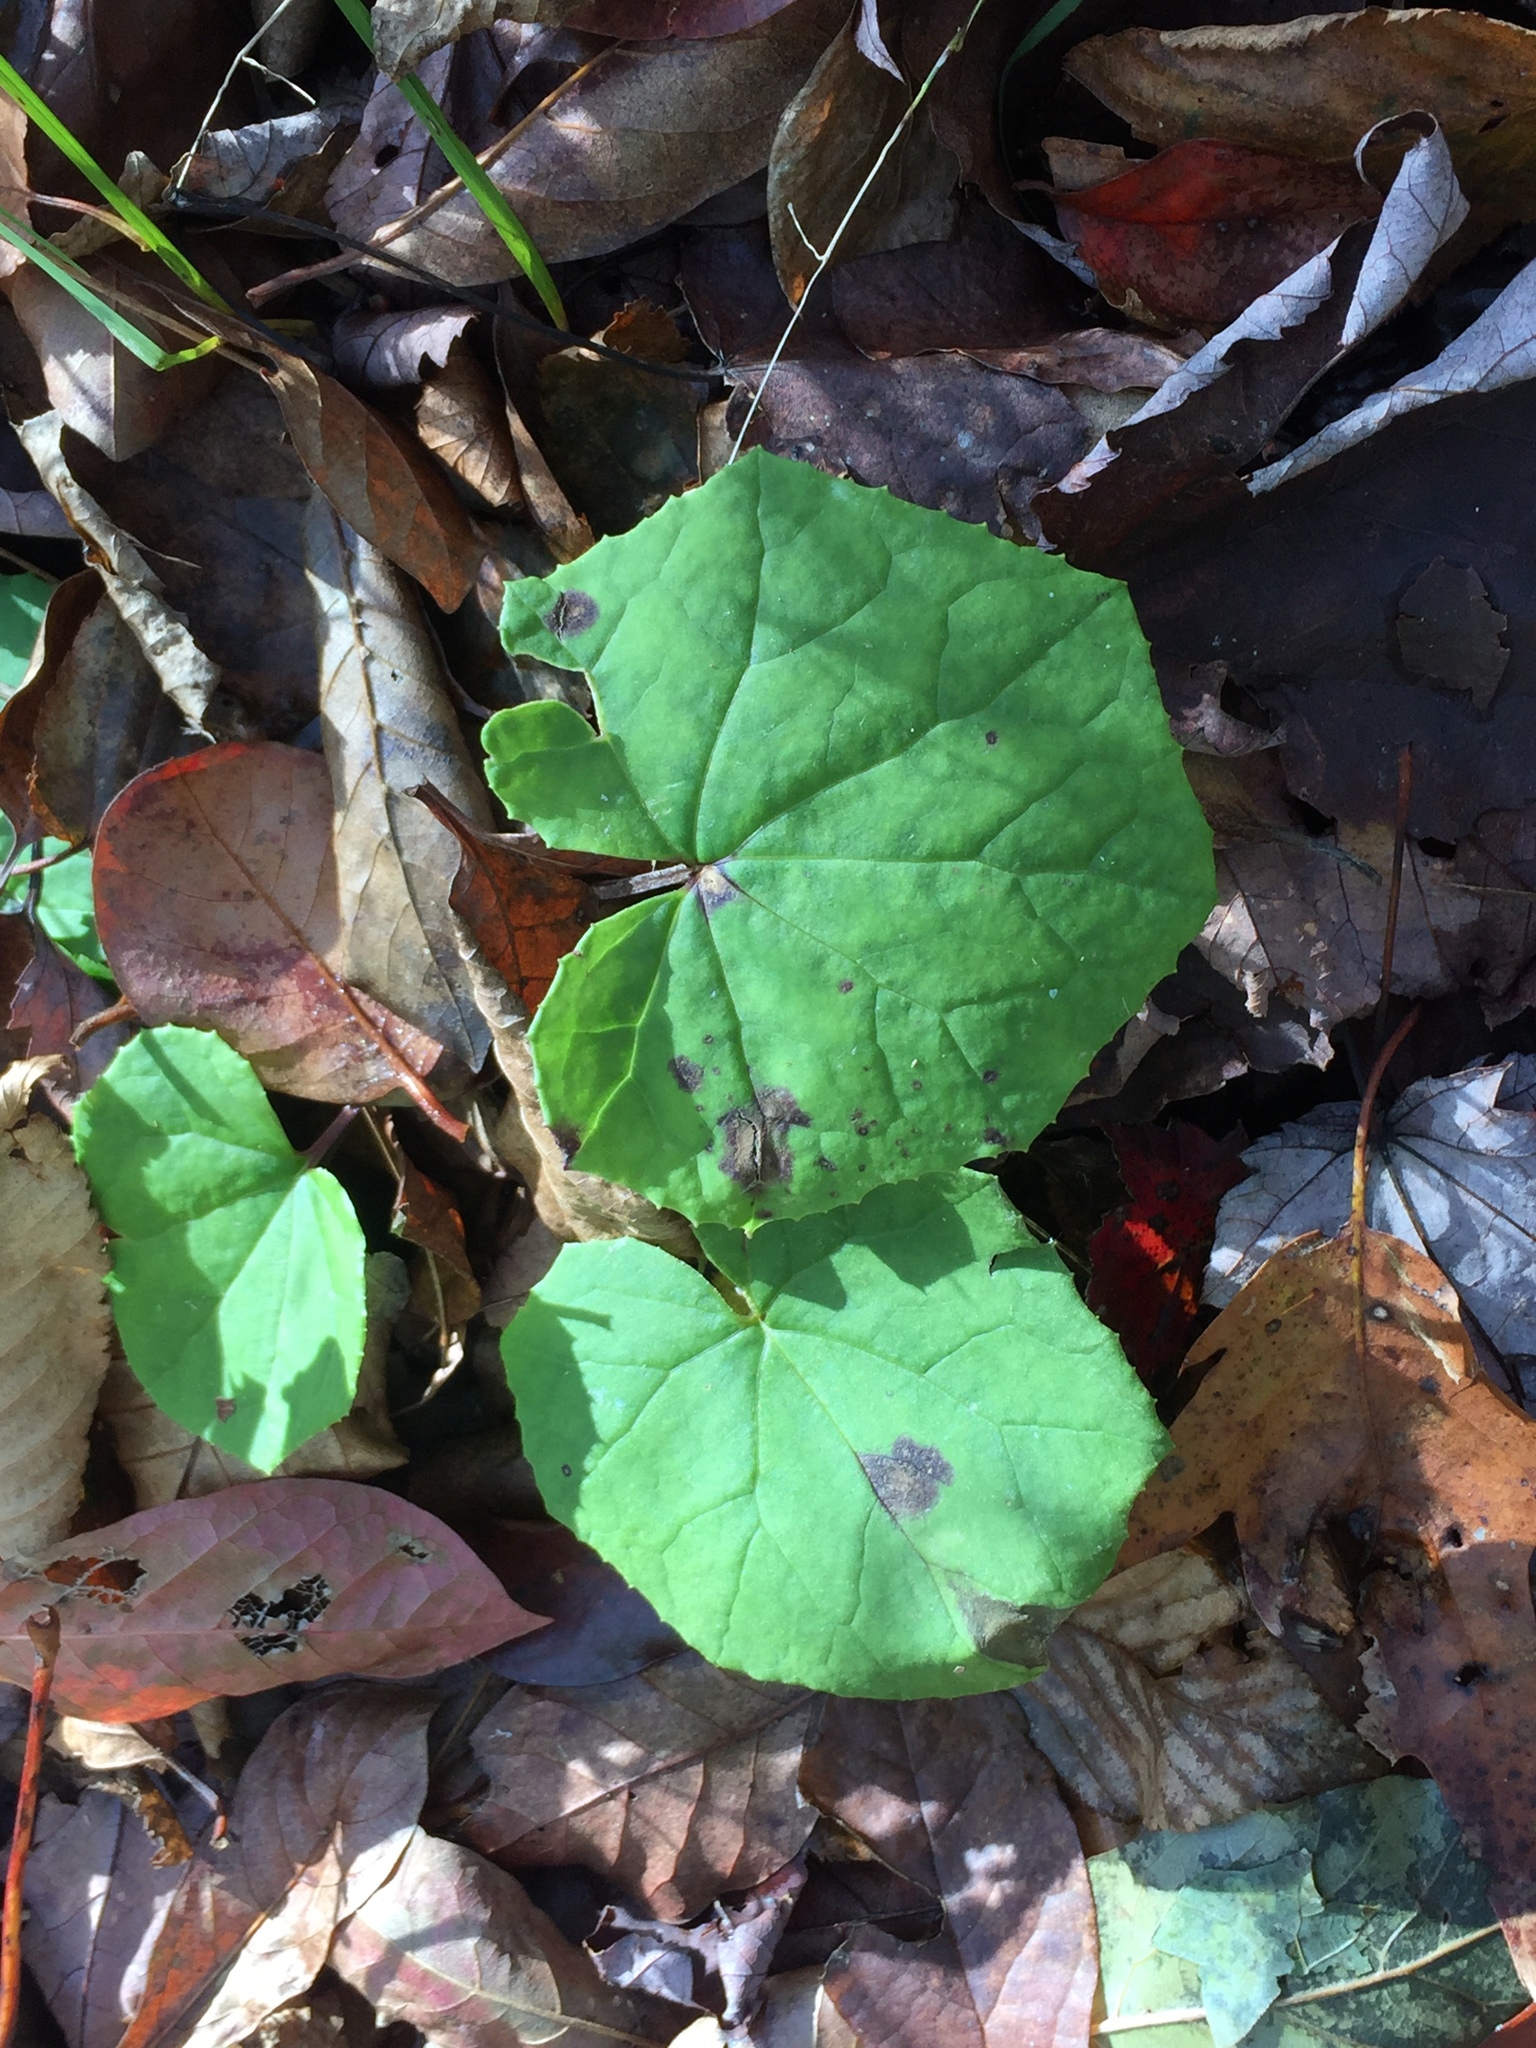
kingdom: Plantae
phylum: Tracheophyta
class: Magnoliopsida
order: Asterales
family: Asteraceae
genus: Tussilago
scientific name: Tussilago farfara
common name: Coltsfoot
